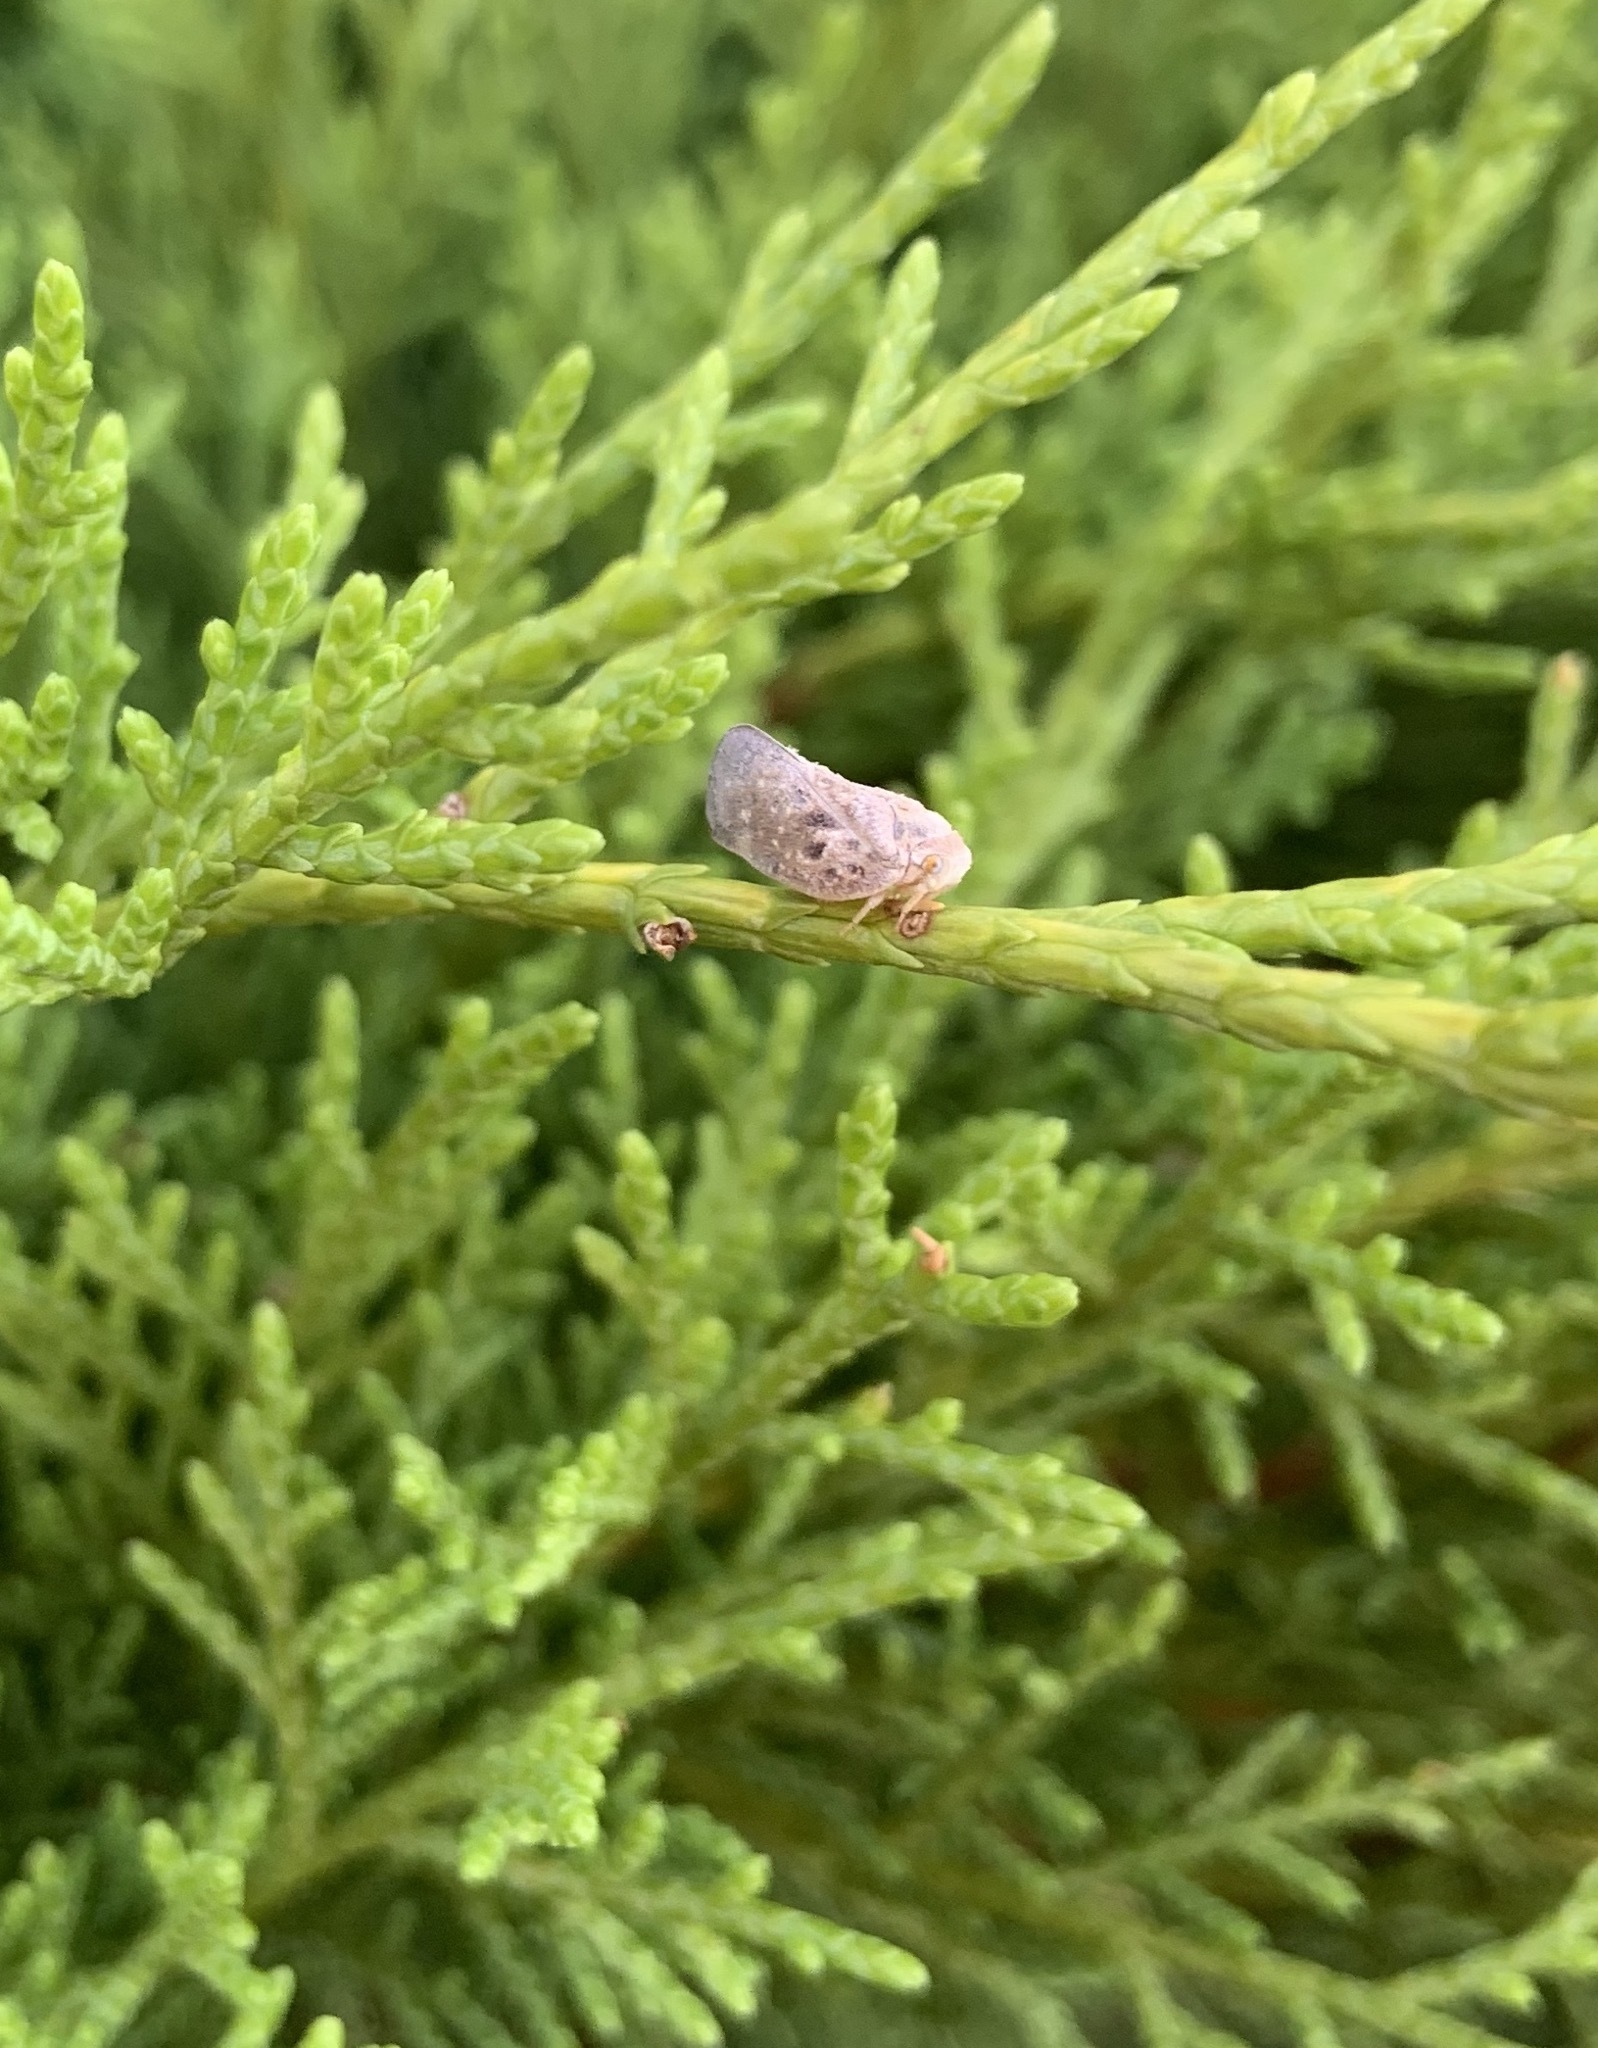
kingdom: Animalia
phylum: Arthropoda
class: Insecta
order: Hemiptera
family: Flatidae
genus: Metcalfa
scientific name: Metcalfa pruinosa
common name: Citrus flatid planthopper
